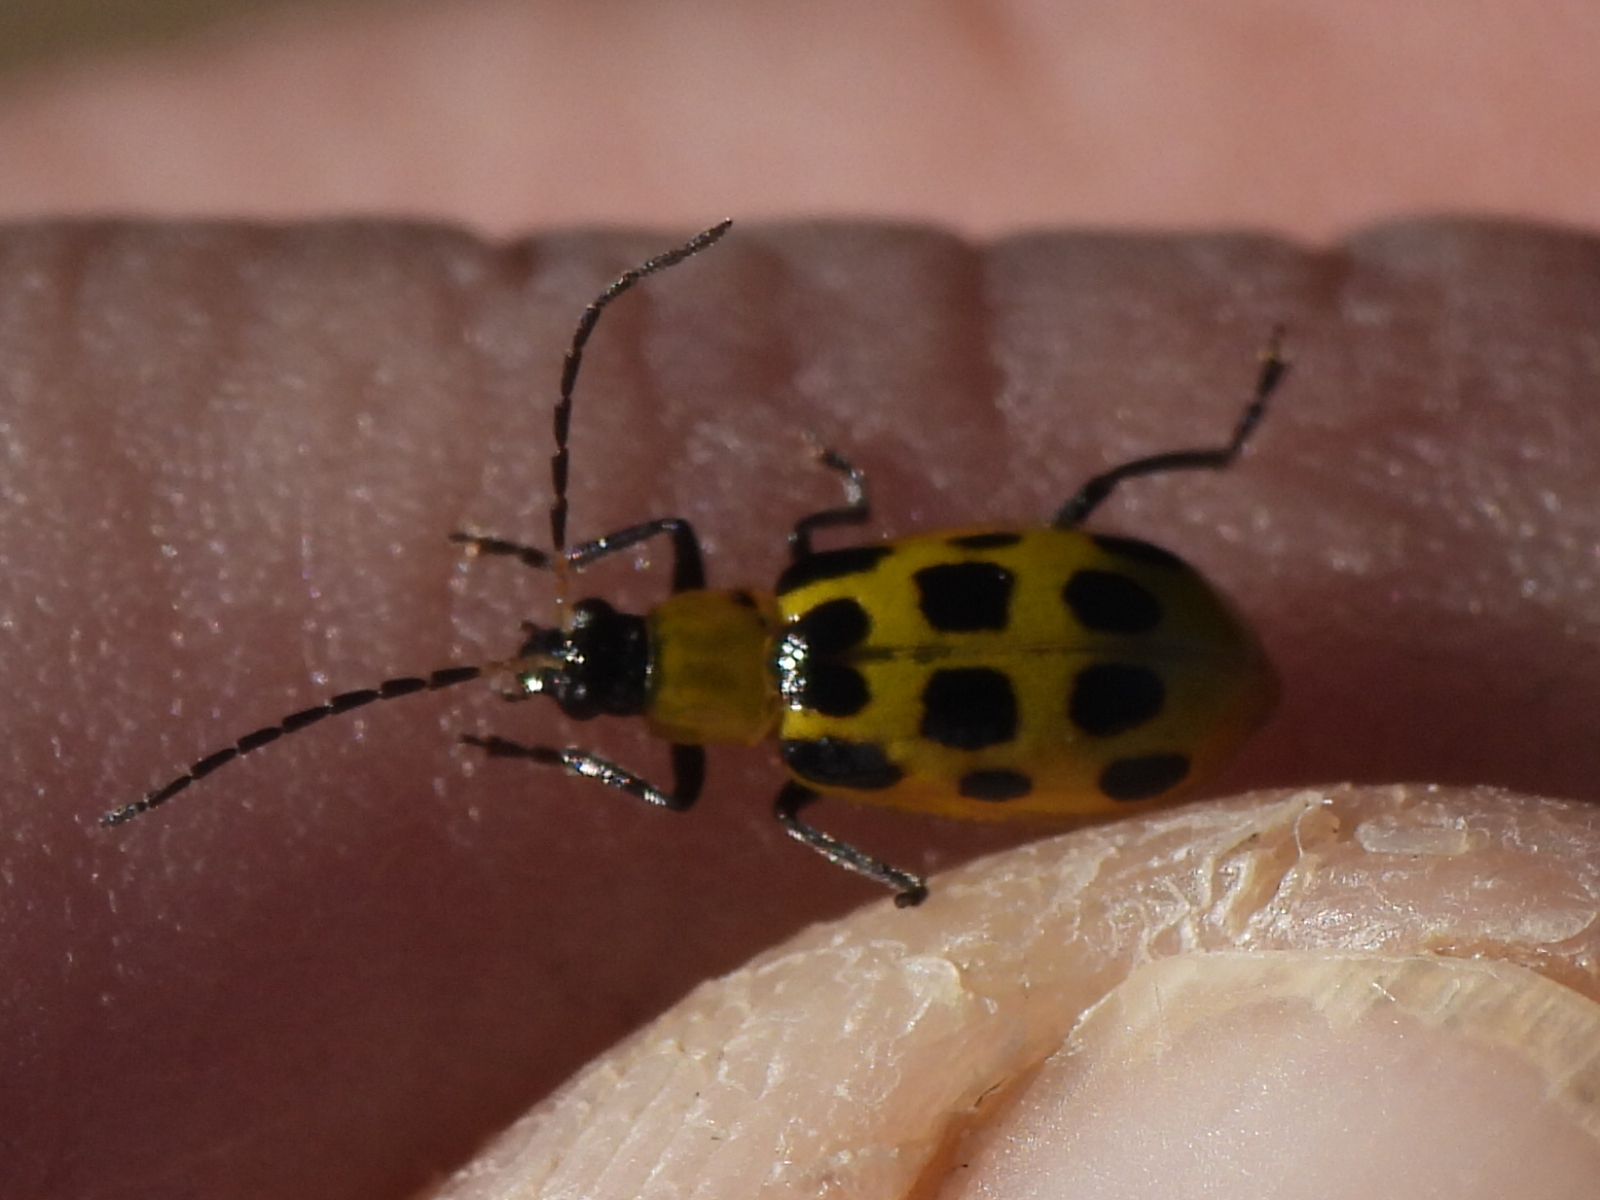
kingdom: Animalia
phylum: Arthropoda
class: Insecta
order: Coleoptera
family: Chrysomelidae
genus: Diabrotica
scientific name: Diabrotica undecimpunctata
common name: Spotted cucumber beetle
